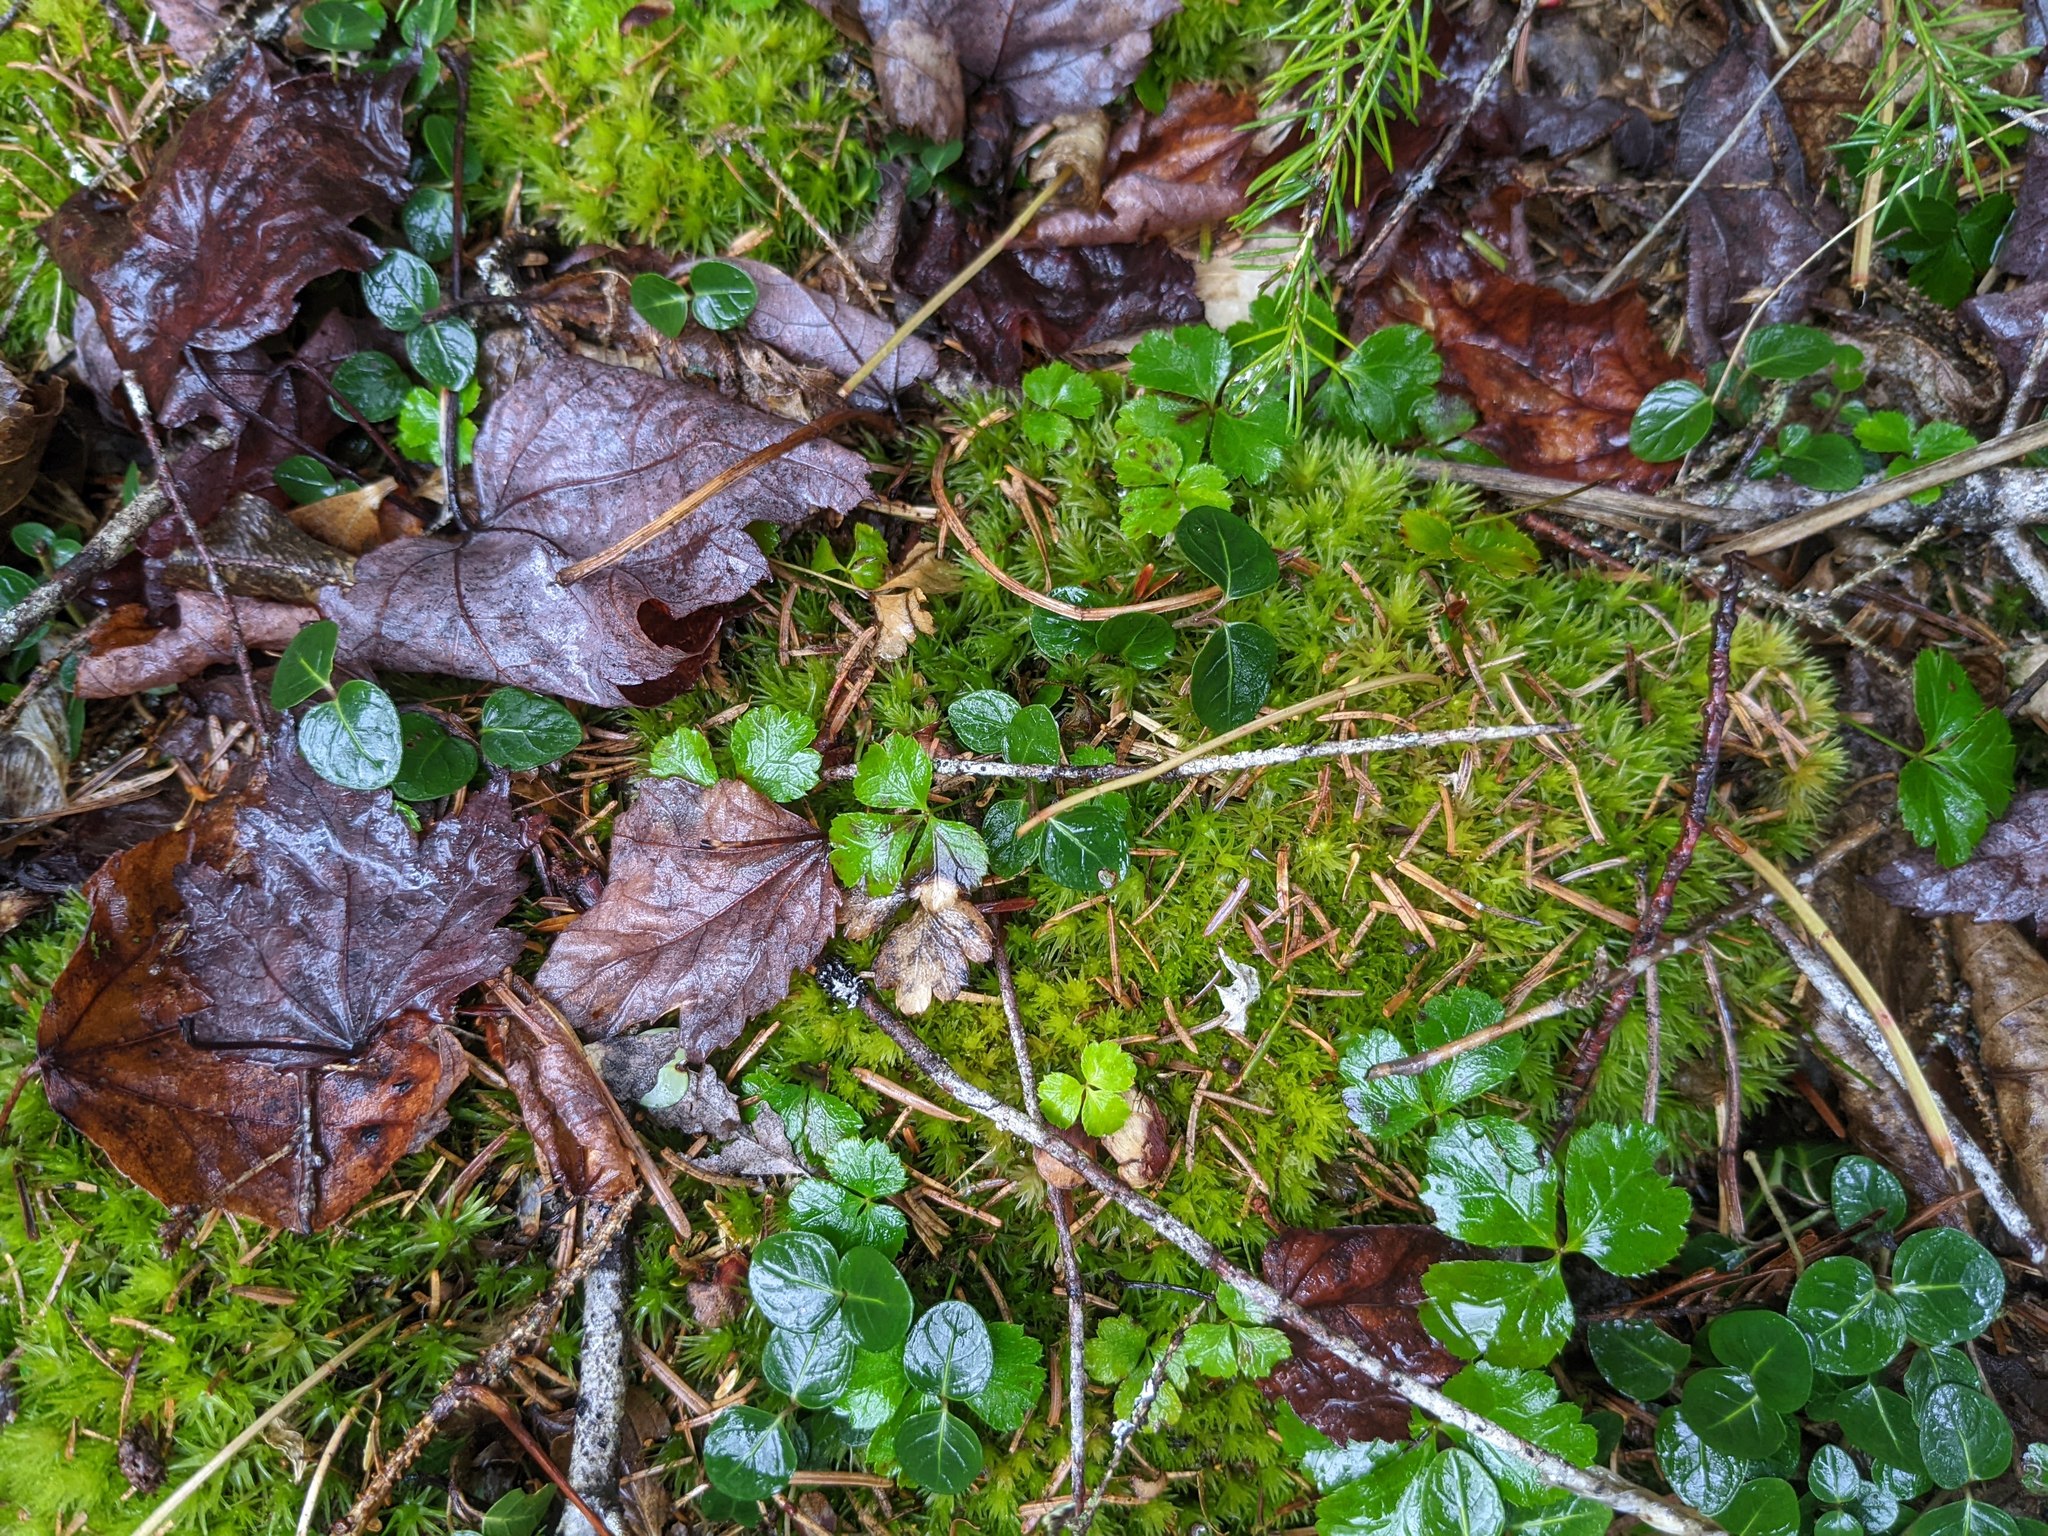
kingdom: Plantae
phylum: Tracheophyta
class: Magnoliopsida
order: Ranunculales
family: Ranunculaceae
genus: Coptis
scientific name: Coptis trifolia
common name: Canker-root
